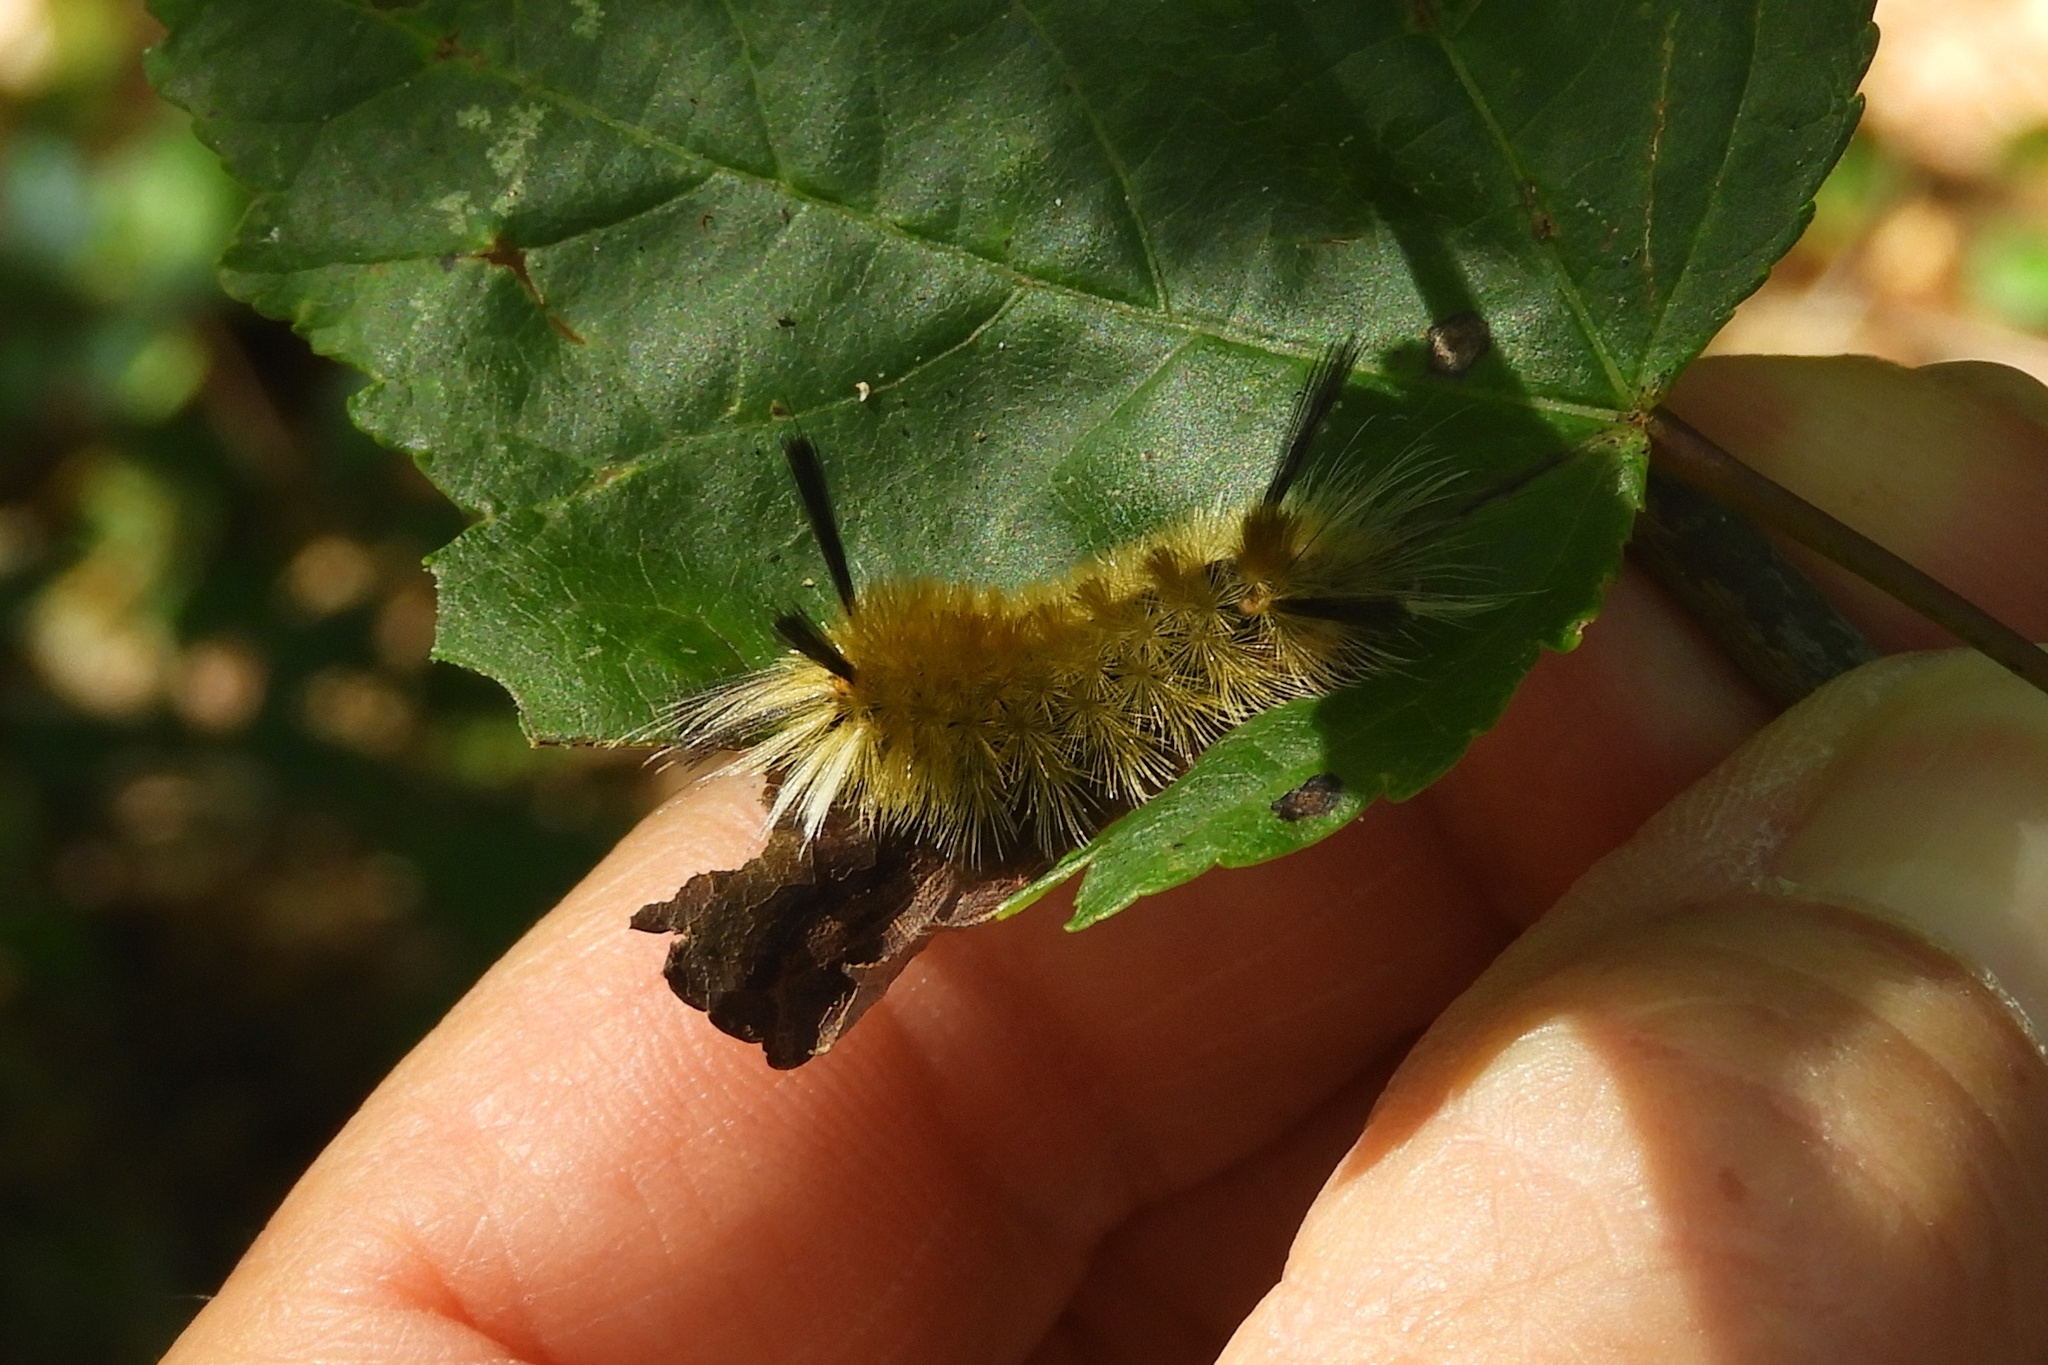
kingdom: Animalia
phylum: Arthropoda
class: Insecta
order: Lepidoptera
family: Erebidae
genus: Halysidota
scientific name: Halysidota tessellaris
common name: Banded tussock moth
